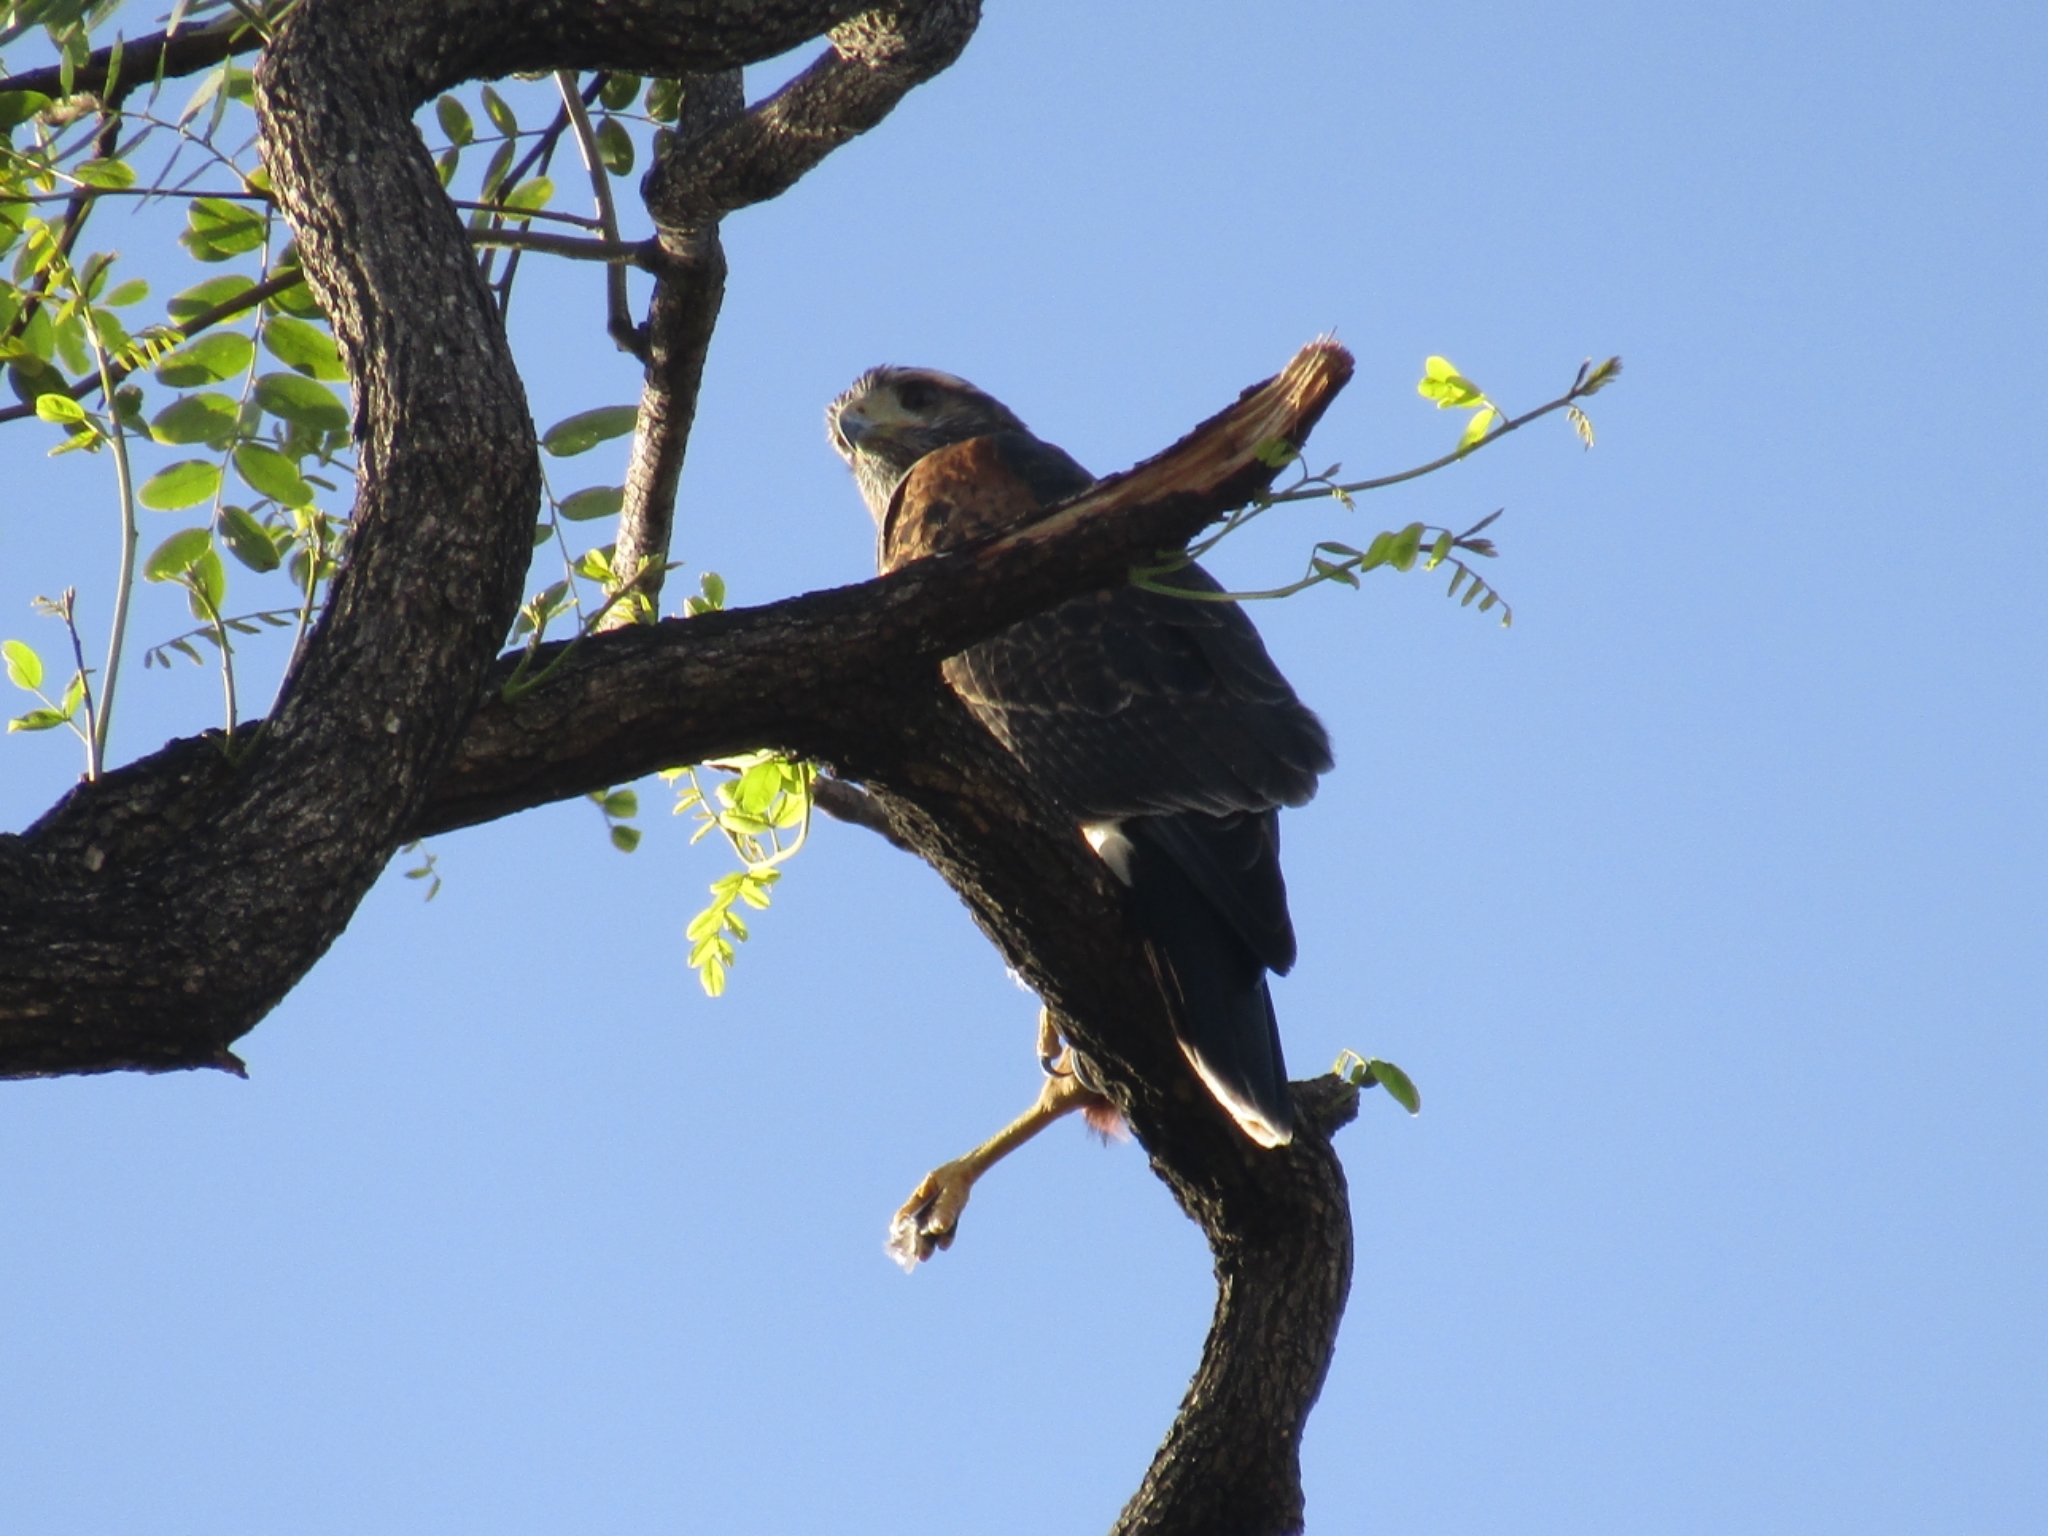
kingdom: Animalia
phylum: Chordata
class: Aves
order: Accipitriformes
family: Accipitridae
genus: Parabuteo
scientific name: Parabuteo unicinctus
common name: Harris's hawk
